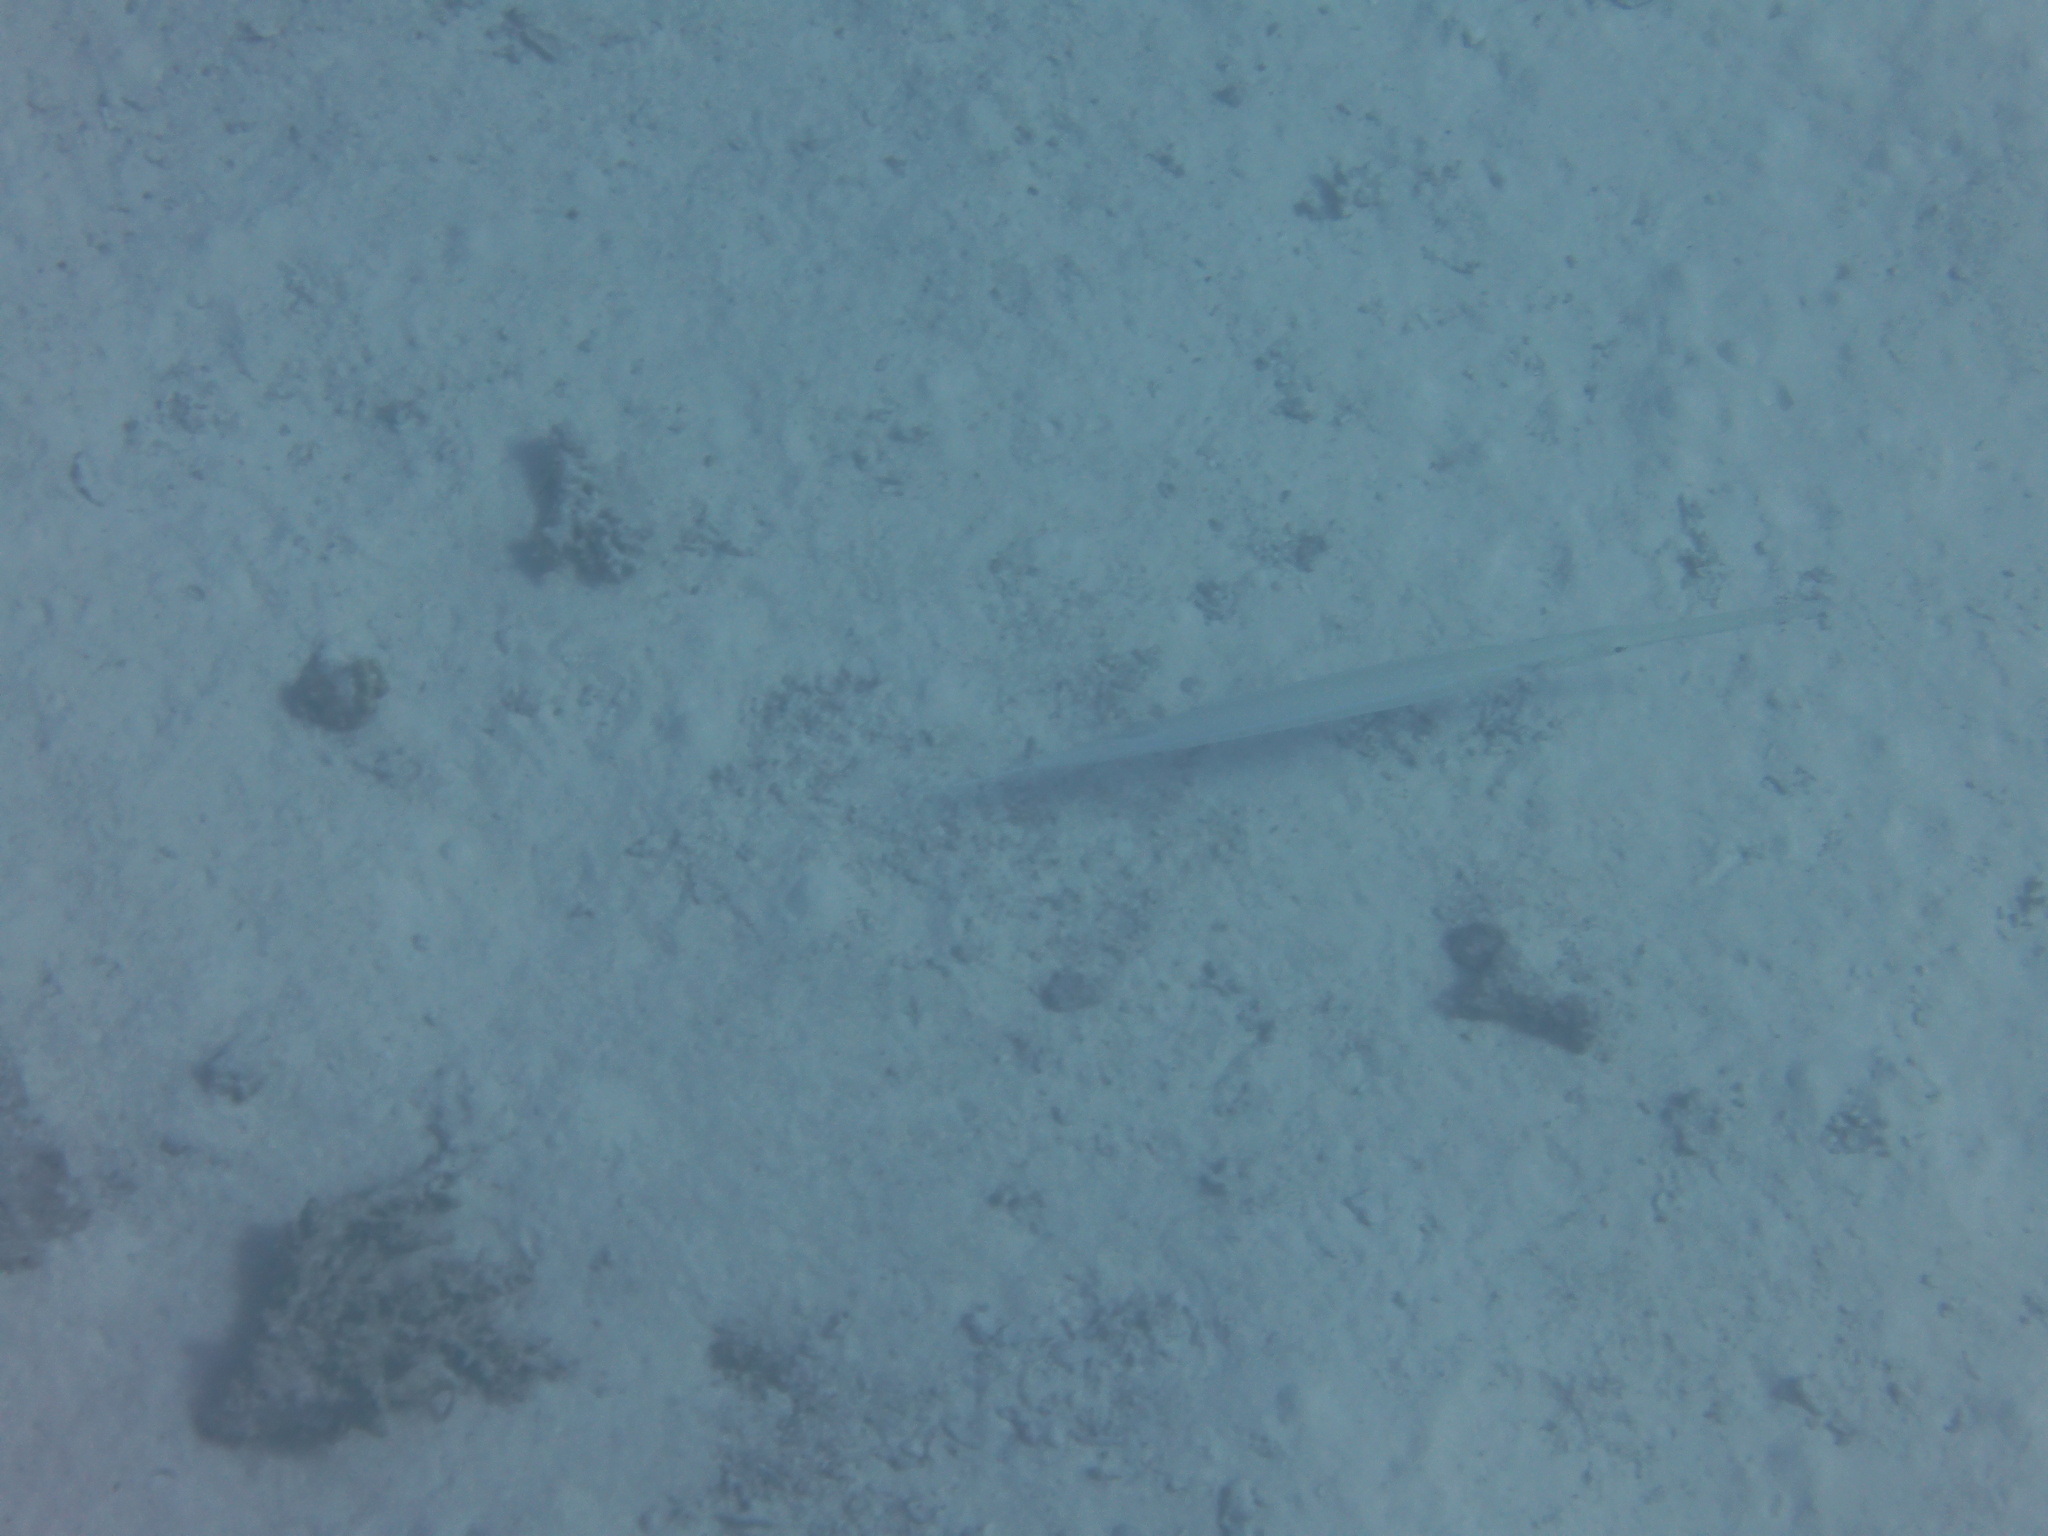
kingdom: Animalia
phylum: Chordata
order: Syngnathiformes
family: Fistulariidae
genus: Fistularia
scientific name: Fistularia commersonii
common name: Bluespotted cornetfish
